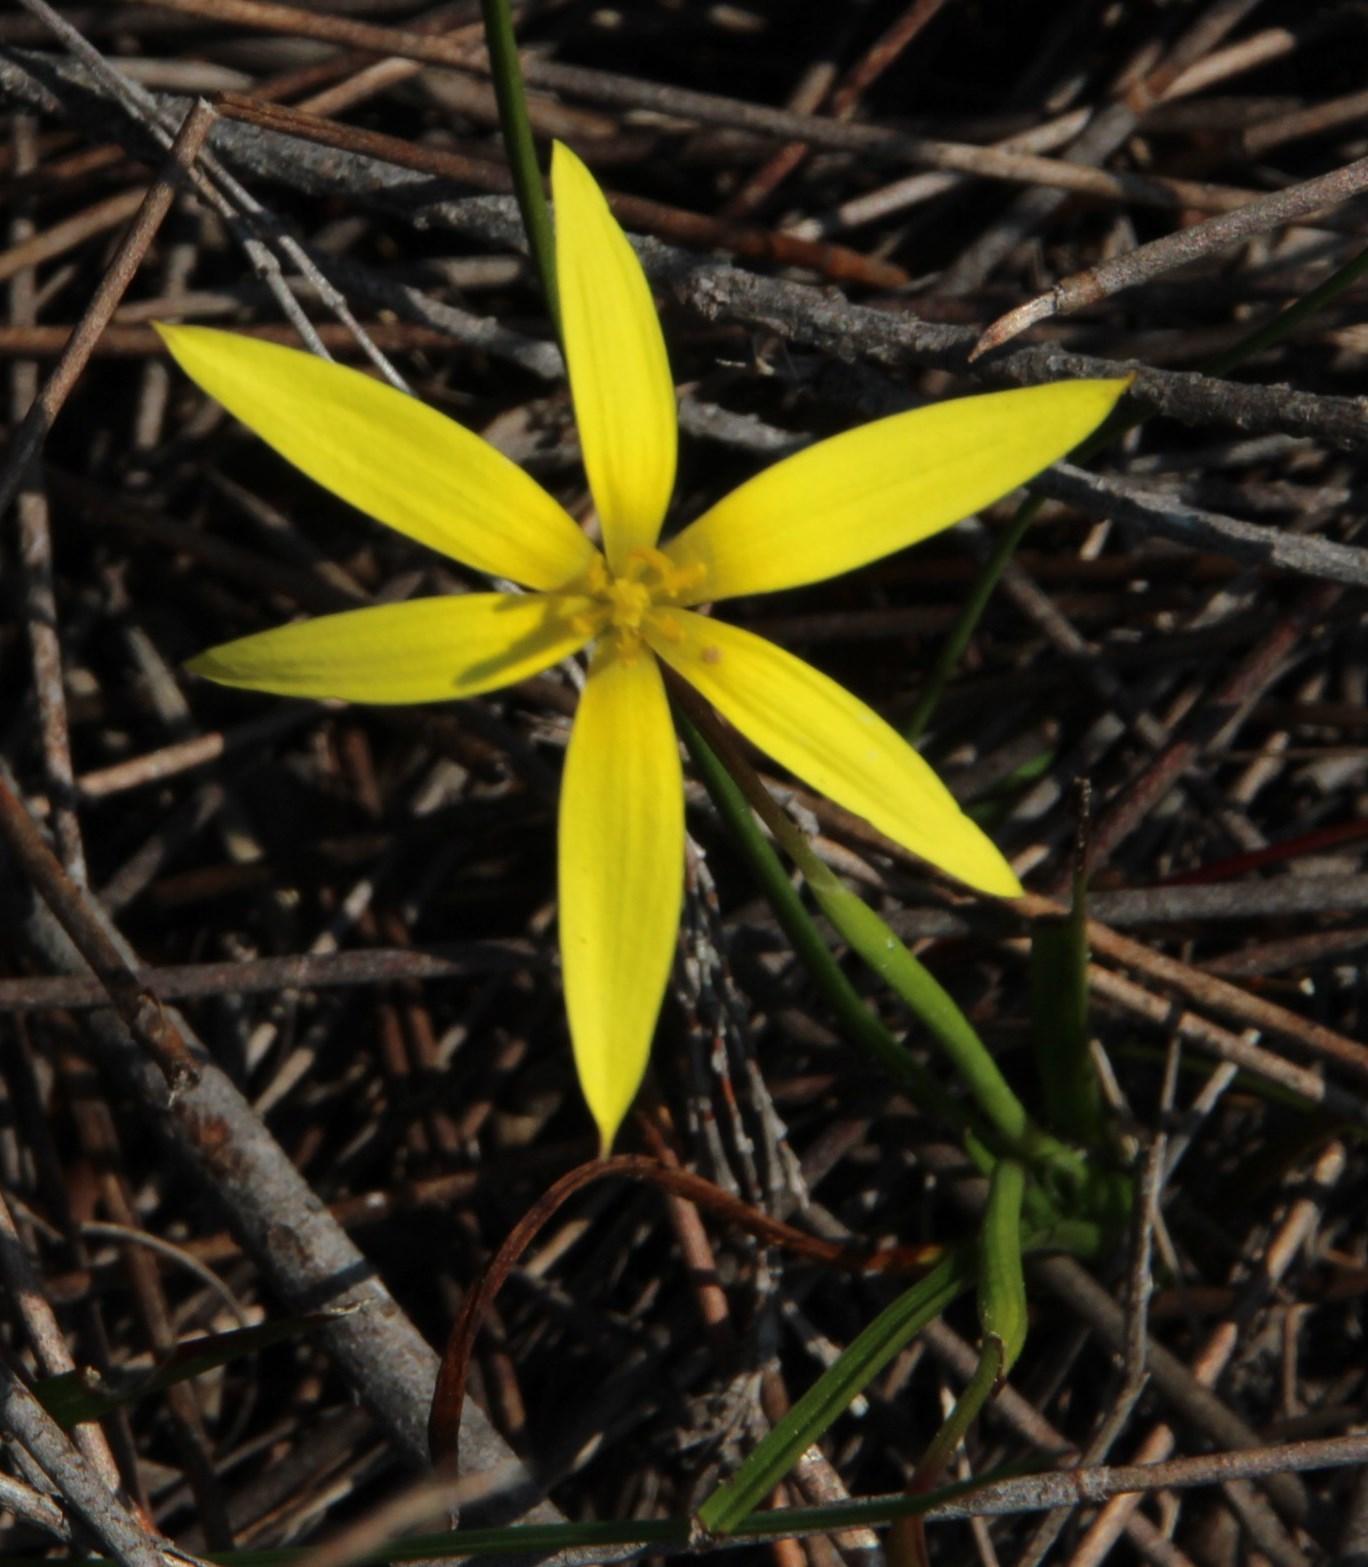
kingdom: Plantae
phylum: Tracheophyta
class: Liliopsida
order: Asparagales
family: Hypoxidaceae
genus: Pauridia
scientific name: Pauridia capensis
